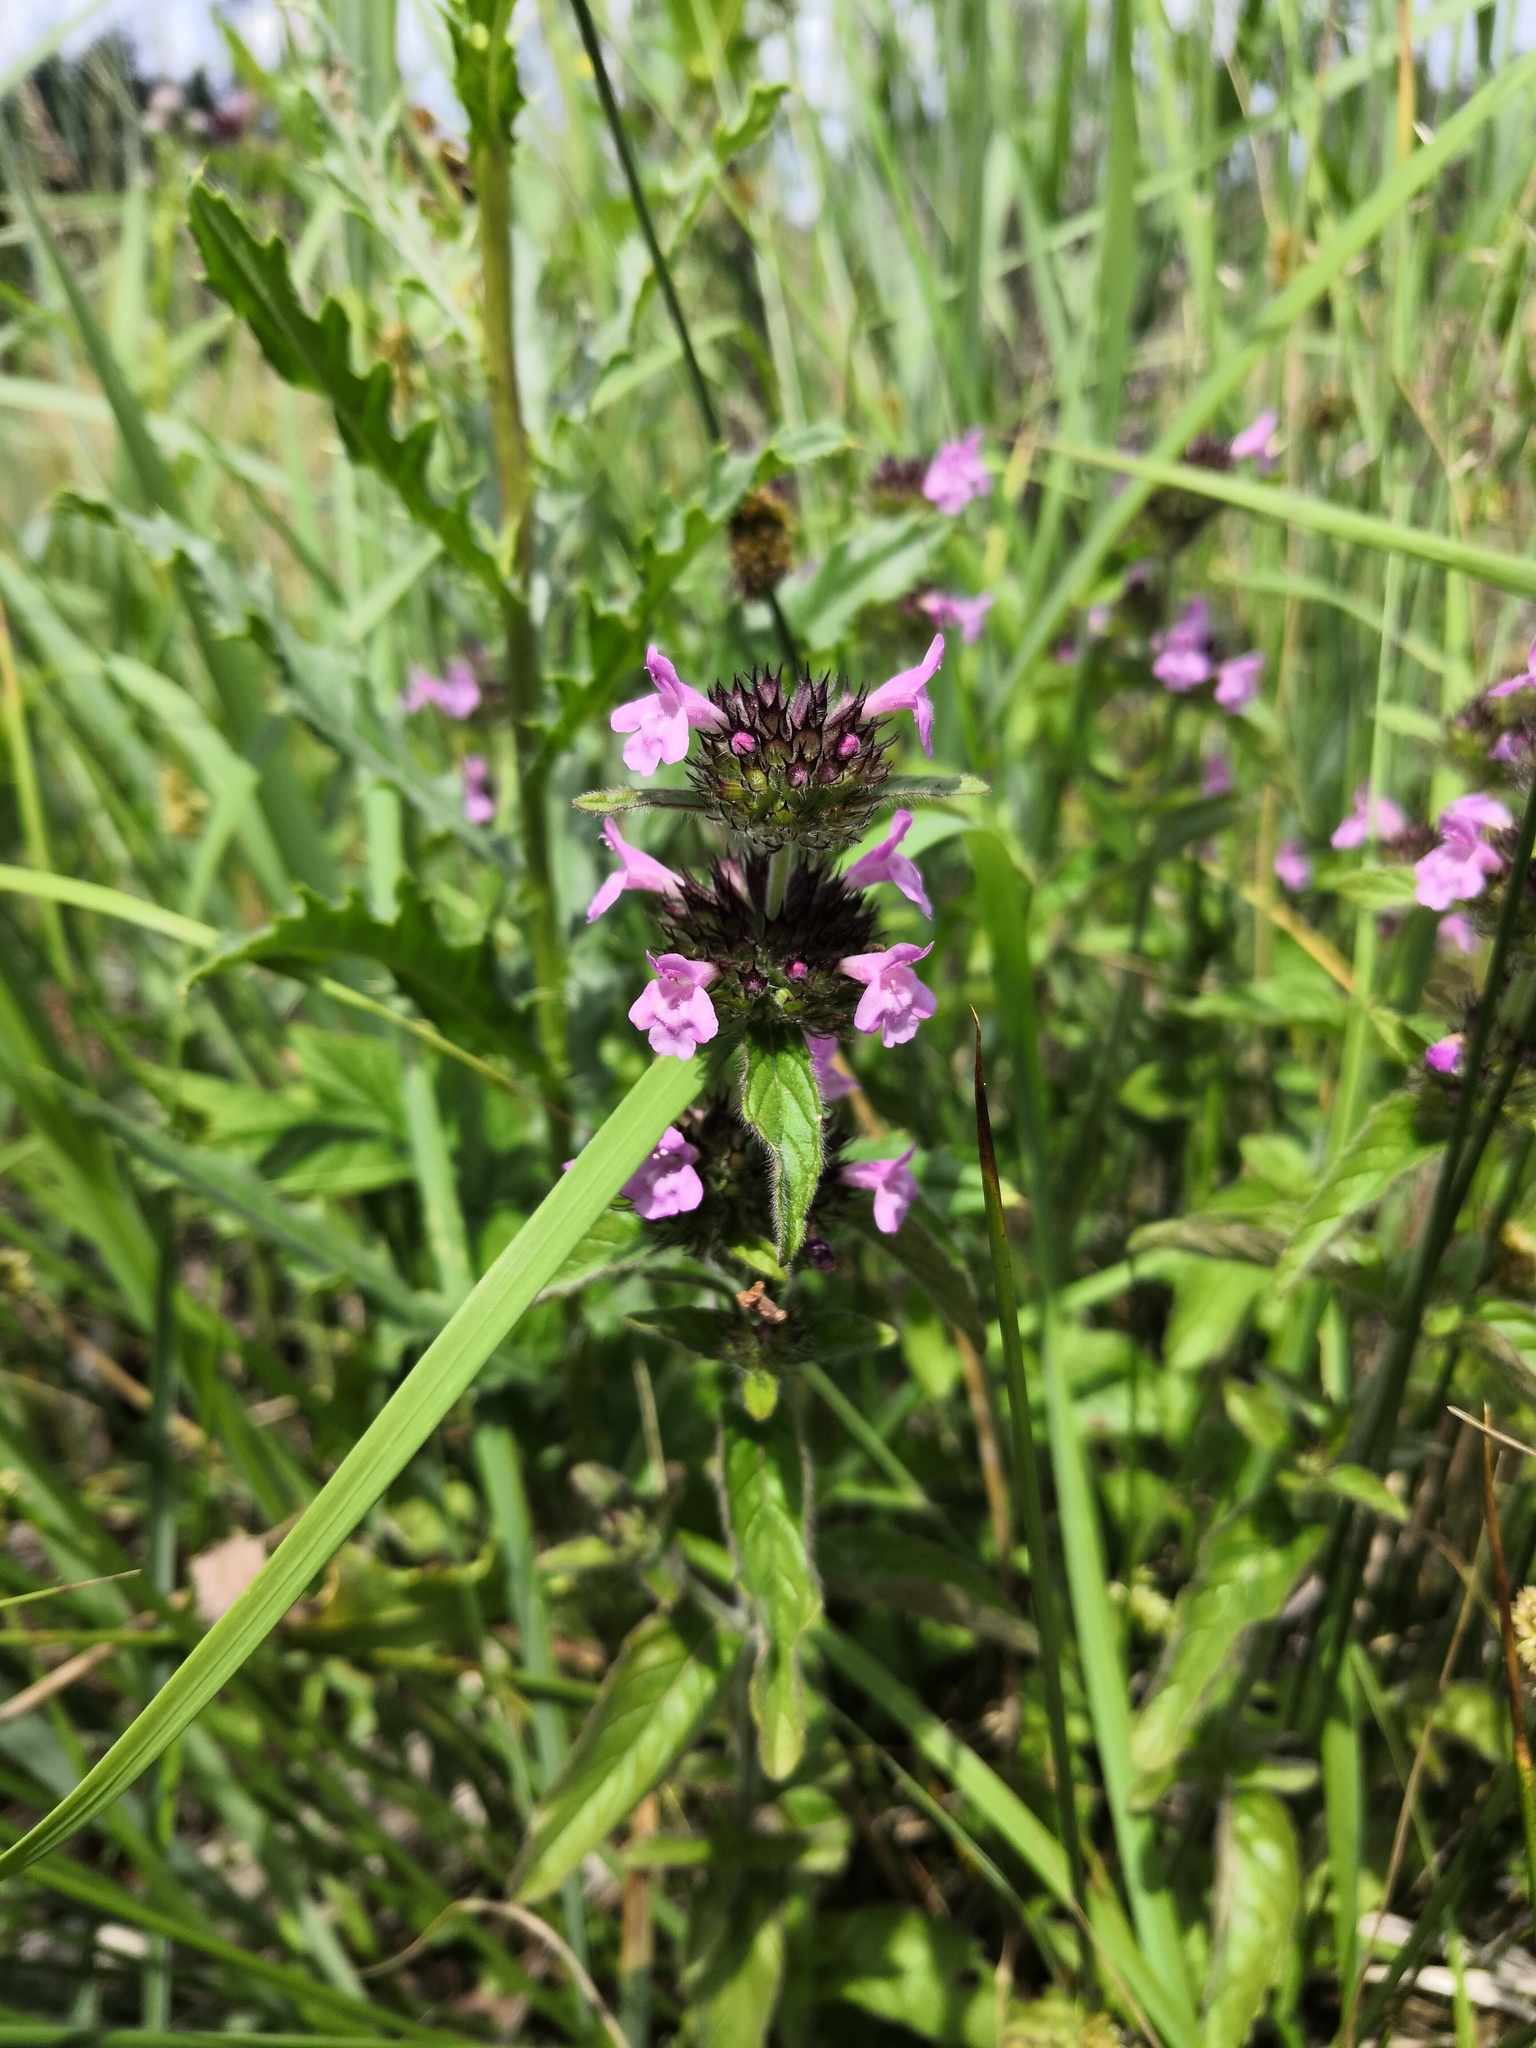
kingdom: Plantae
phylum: Tracheophyta
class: Magnoliopsida
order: Lamiales
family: Lamiaceae
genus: Clinopodium
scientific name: Clinopodium vulgare
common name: Wild basil
